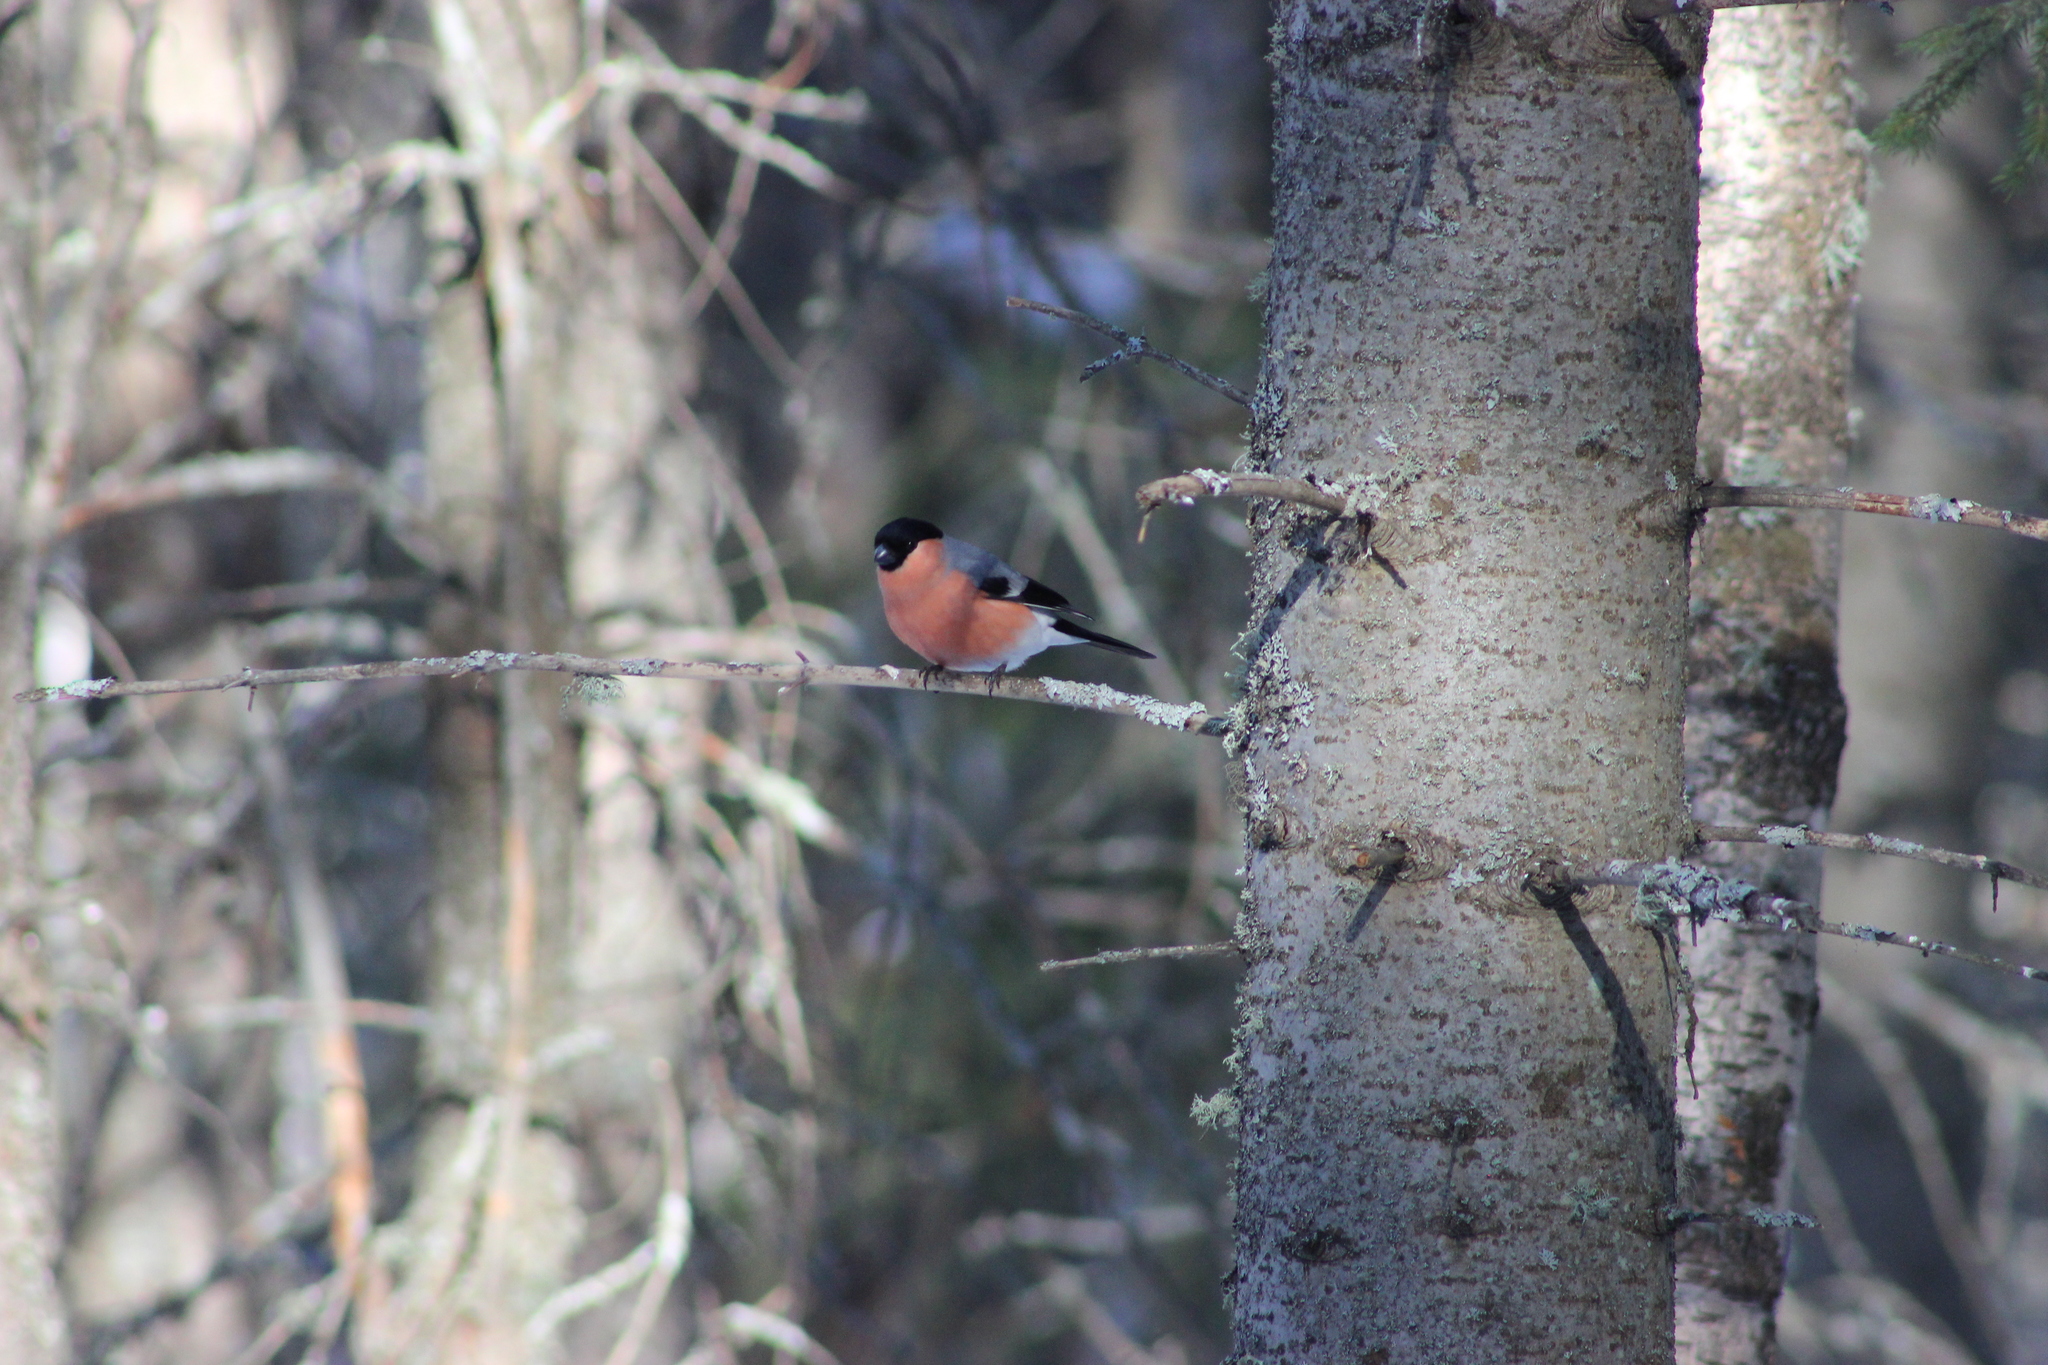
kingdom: Animalia
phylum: Chordata
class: Aves
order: Passeriformes
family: Fringillidae
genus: Pyrrhula
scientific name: Pyrrhula pyrrhula
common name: Eurasian bullfinch
